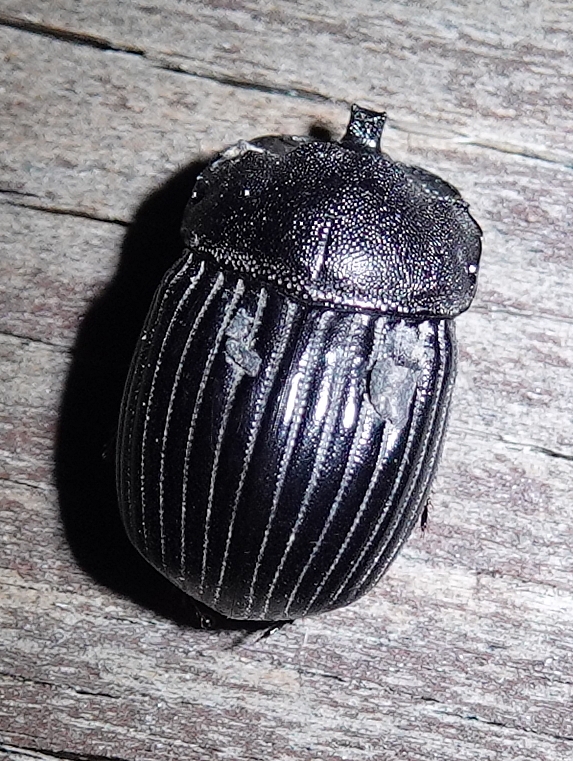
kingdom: Animalia
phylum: Arthropoda
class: Insecta
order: Coleoptera
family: Scarabaeidae
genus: Copris
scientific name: Copris fricator
